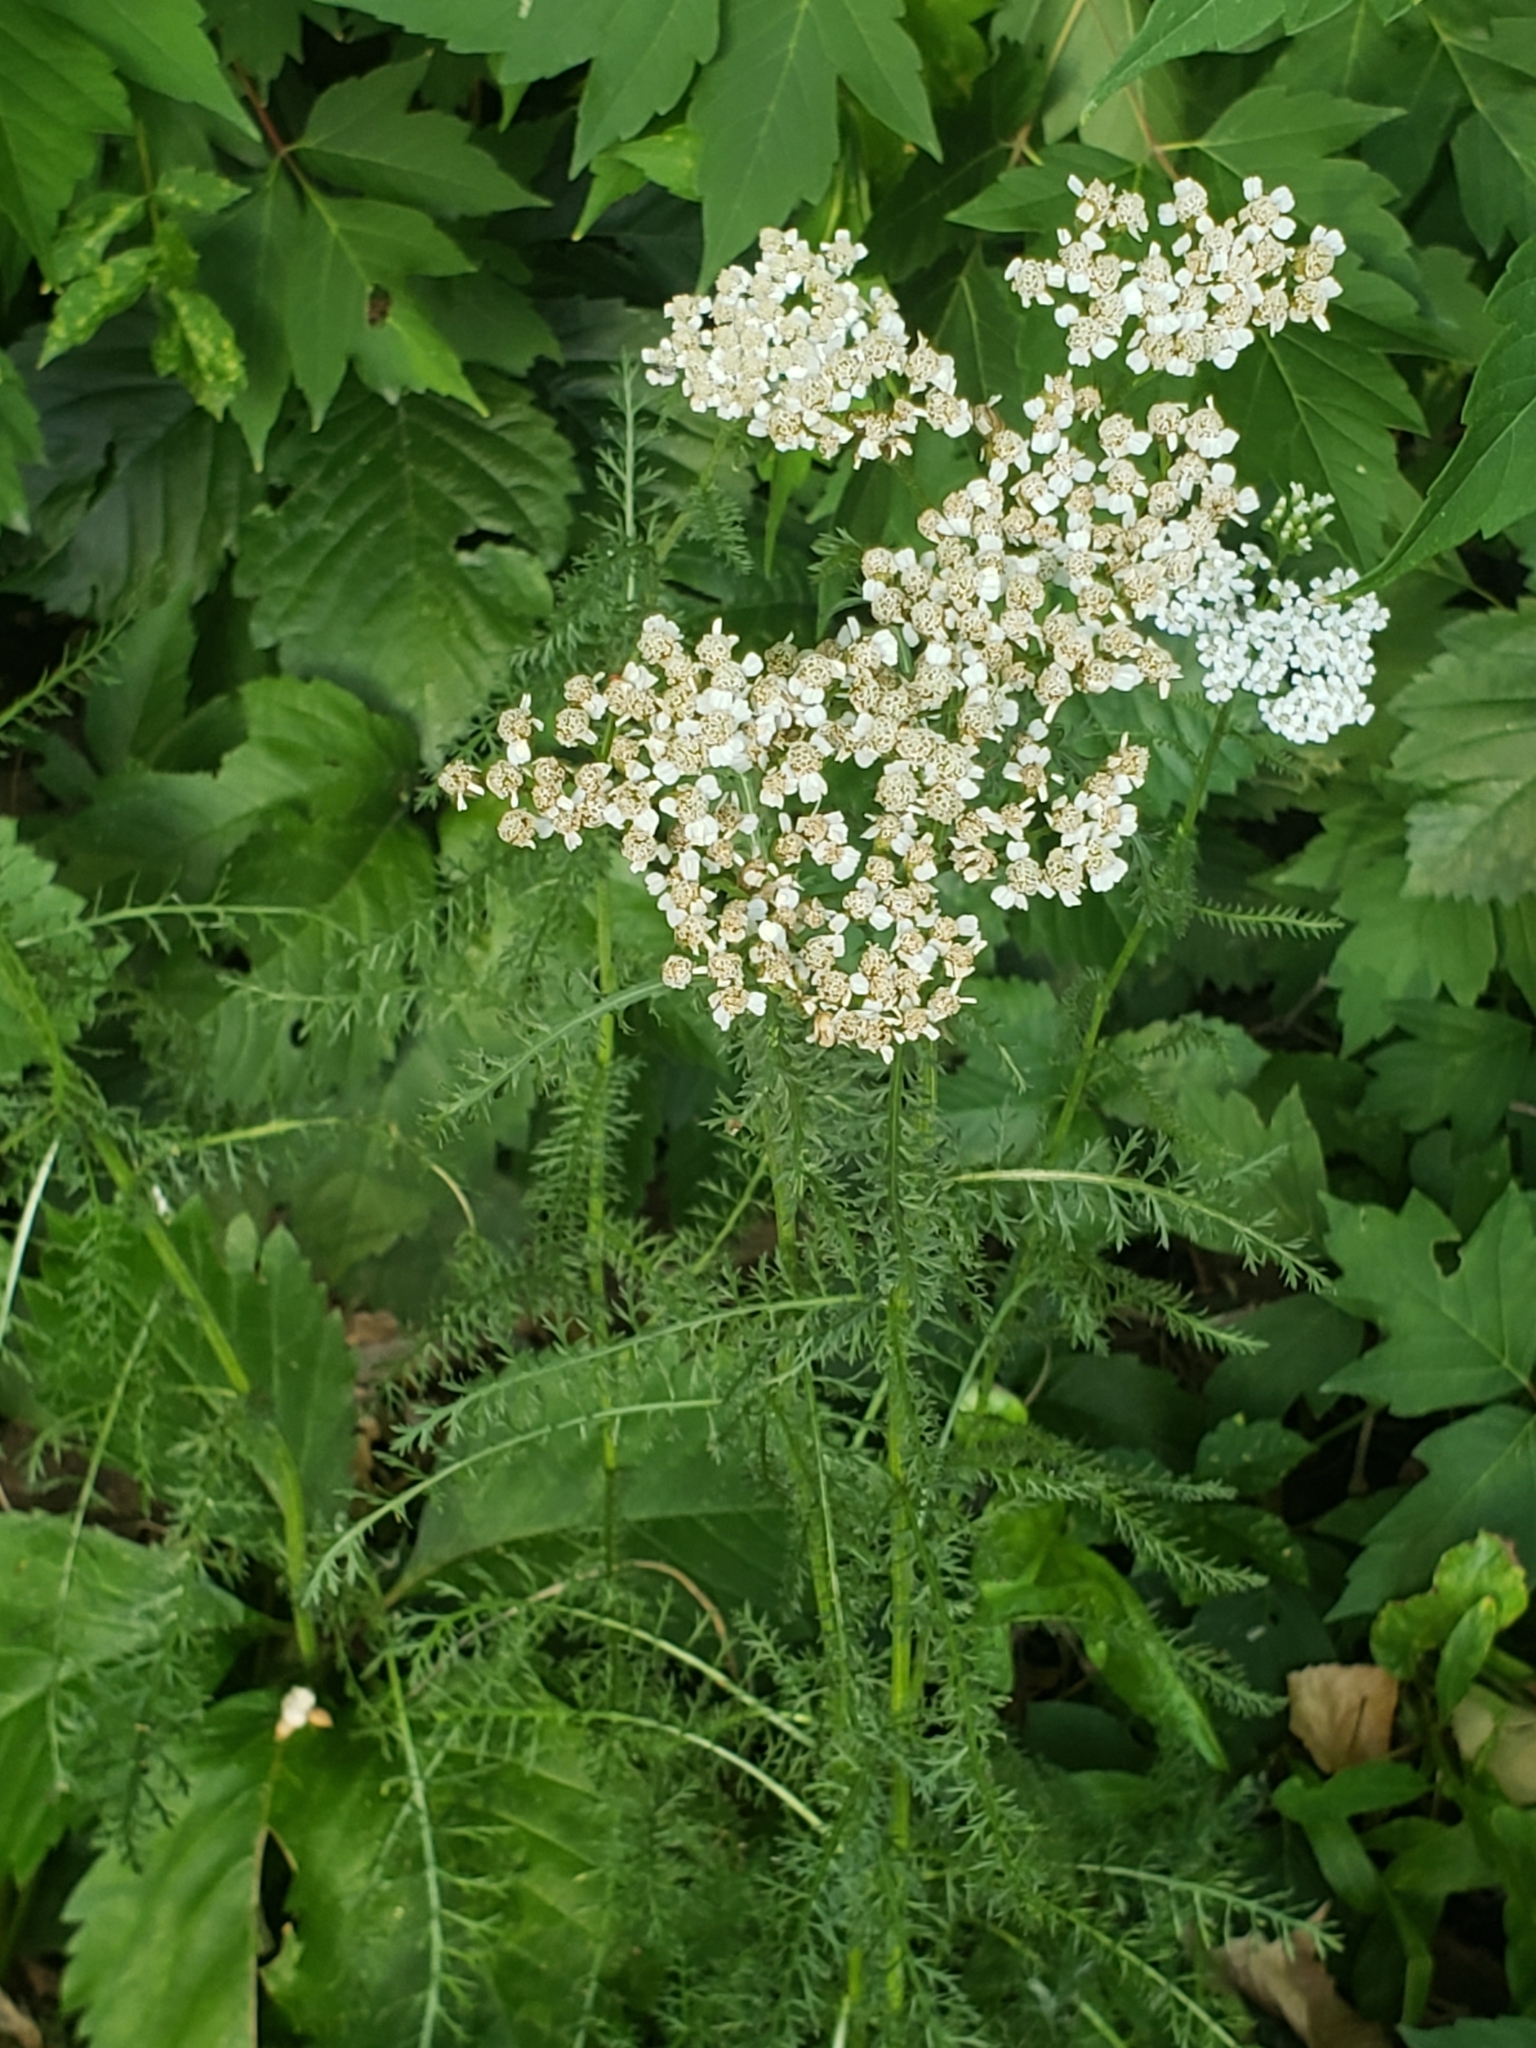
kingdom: Plantae
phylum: Tracheophyta
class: Magnoliopsida
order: Asterales
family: Asteraceae
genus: Achillea
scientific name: Achillea millefolium
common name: Yarrow
